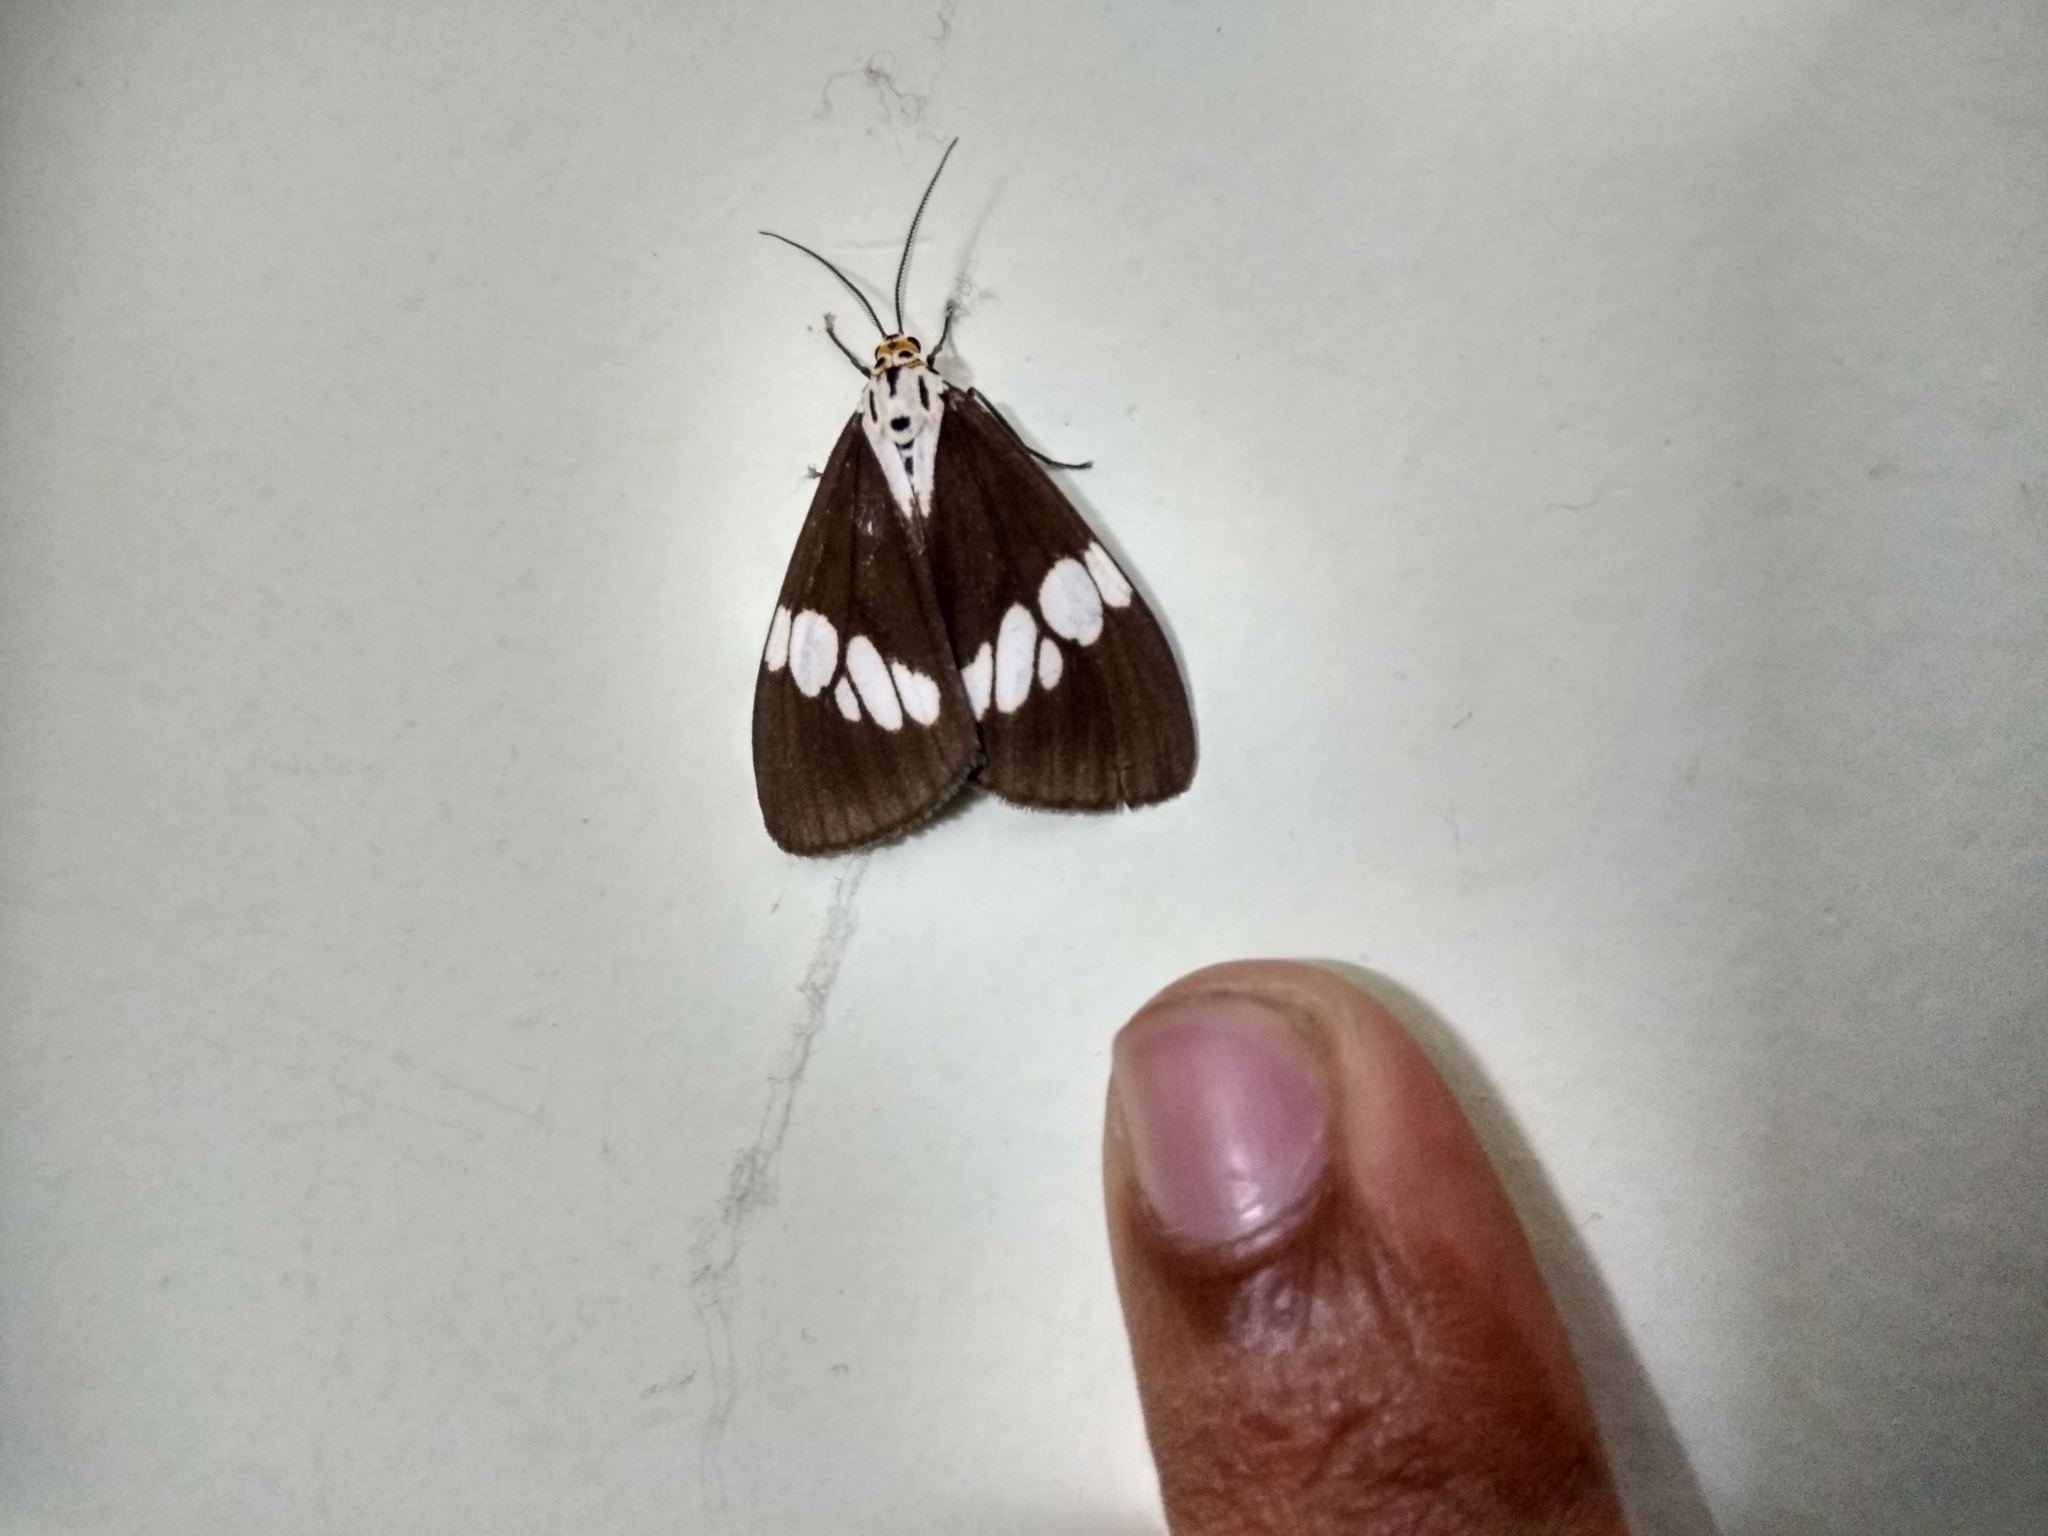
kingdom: Animalia
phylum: Arthropoda
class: Insecta
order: Lepidoptera
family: Erebidae
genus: Nyctemera
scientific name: Nyctemera lacticinia
